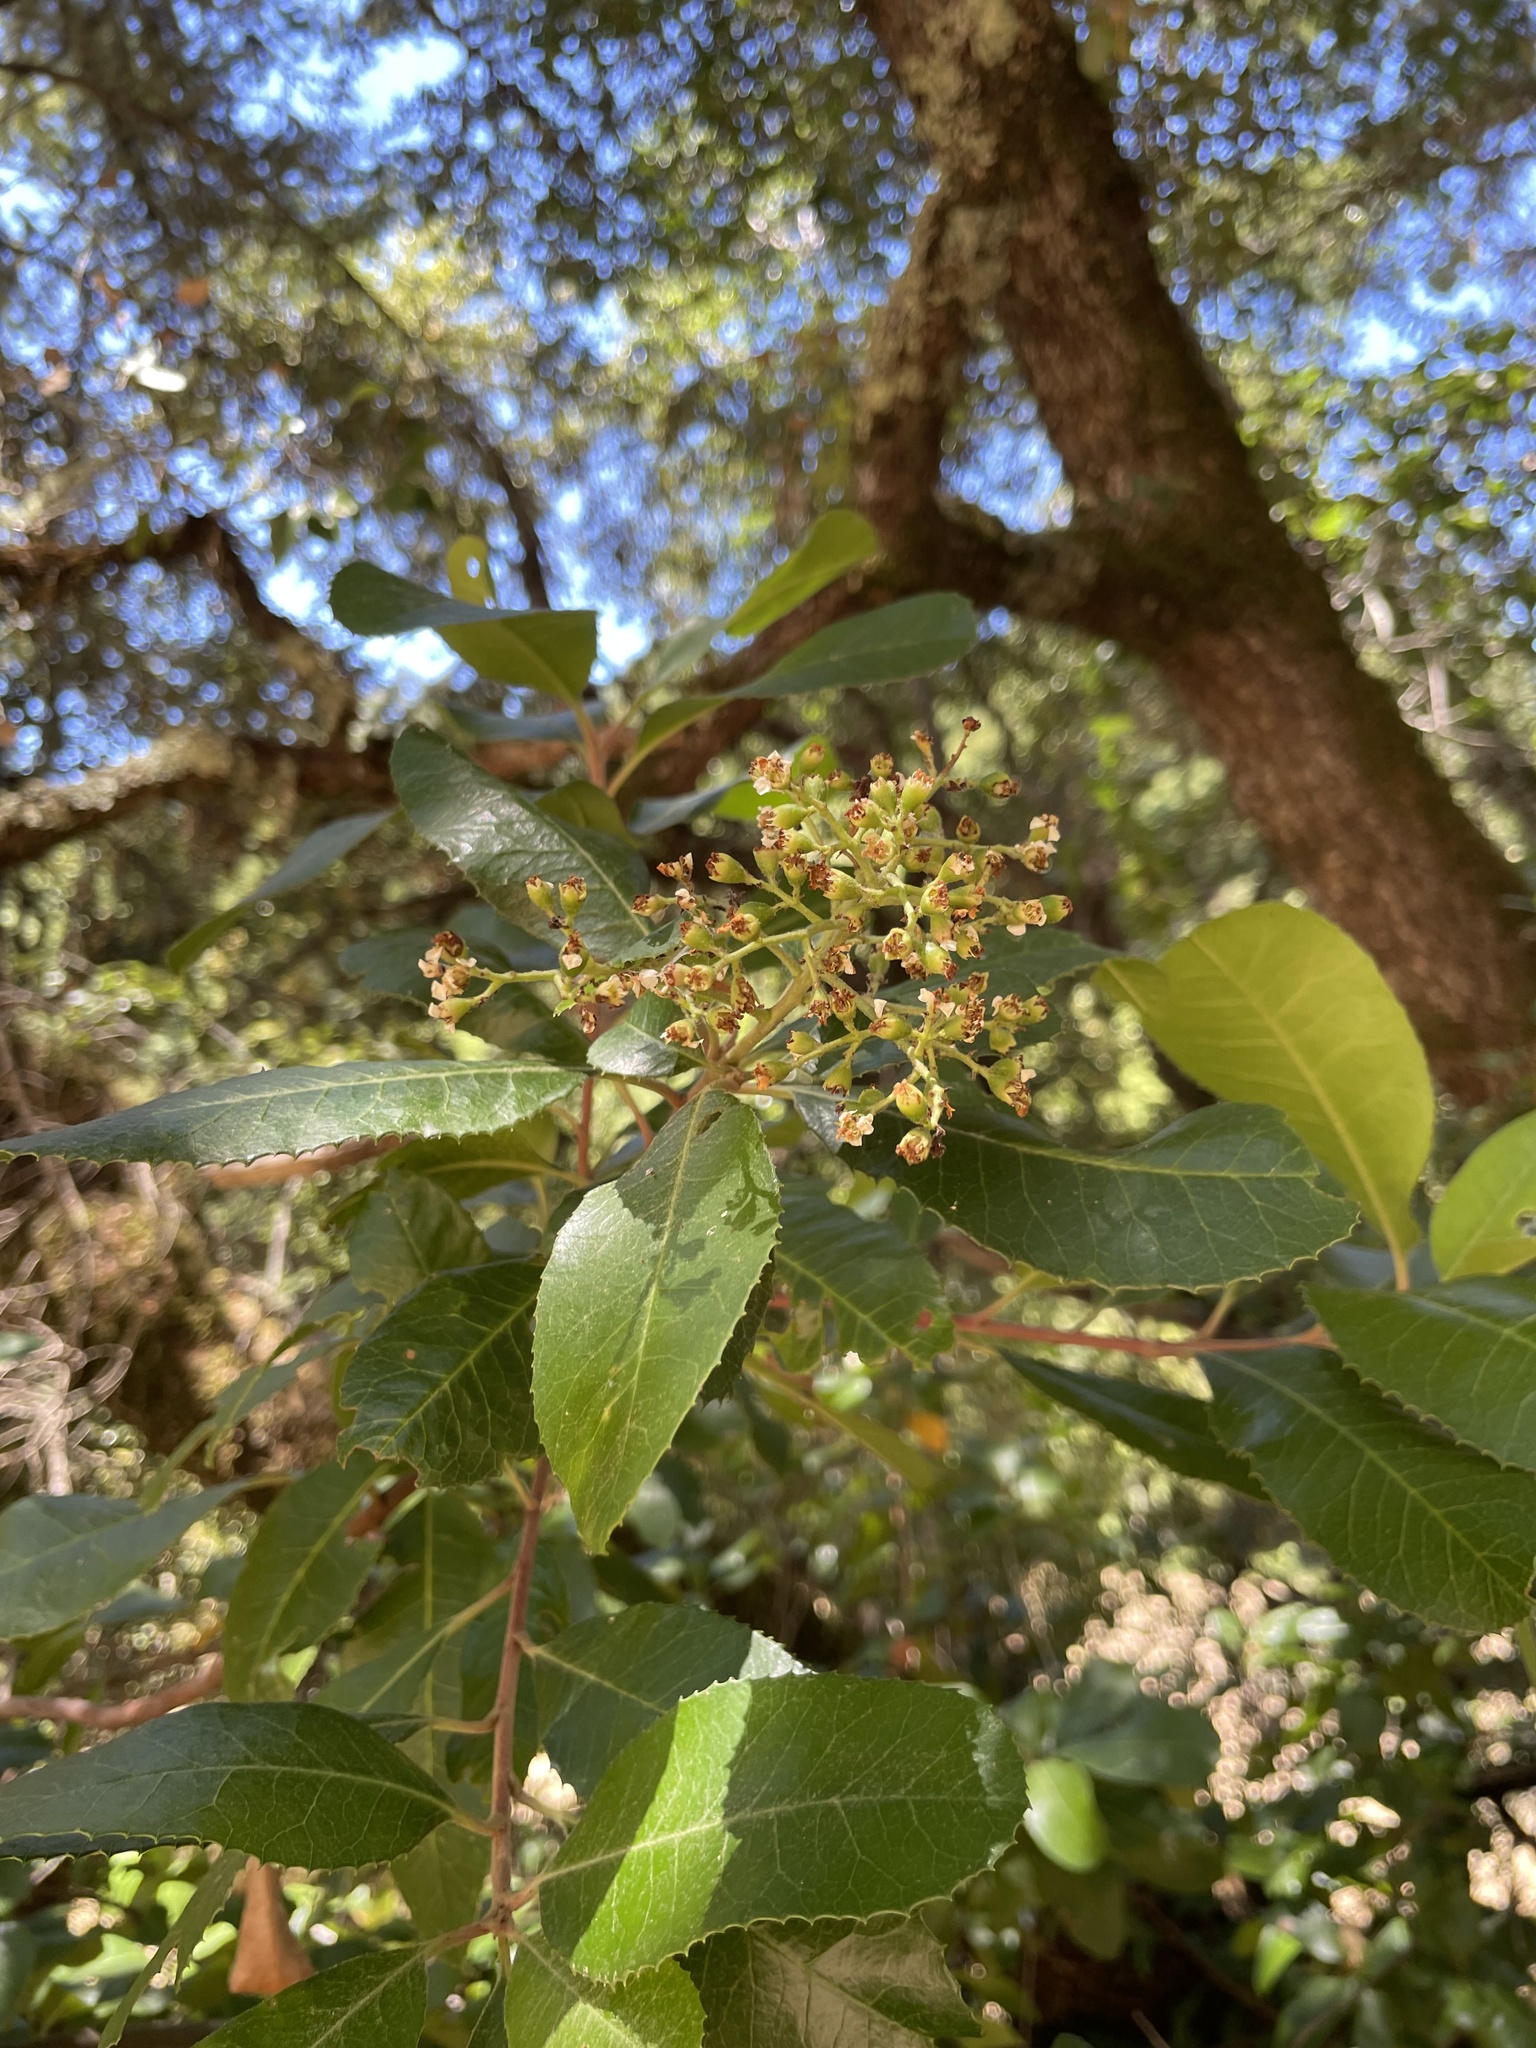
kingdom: Plantae
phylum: Tracheophyta
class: Magnoliopsida
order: Rosales
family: Rosaceae
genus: Heteromeles
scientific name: Heteromeles arbutifolia
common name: California-holly
